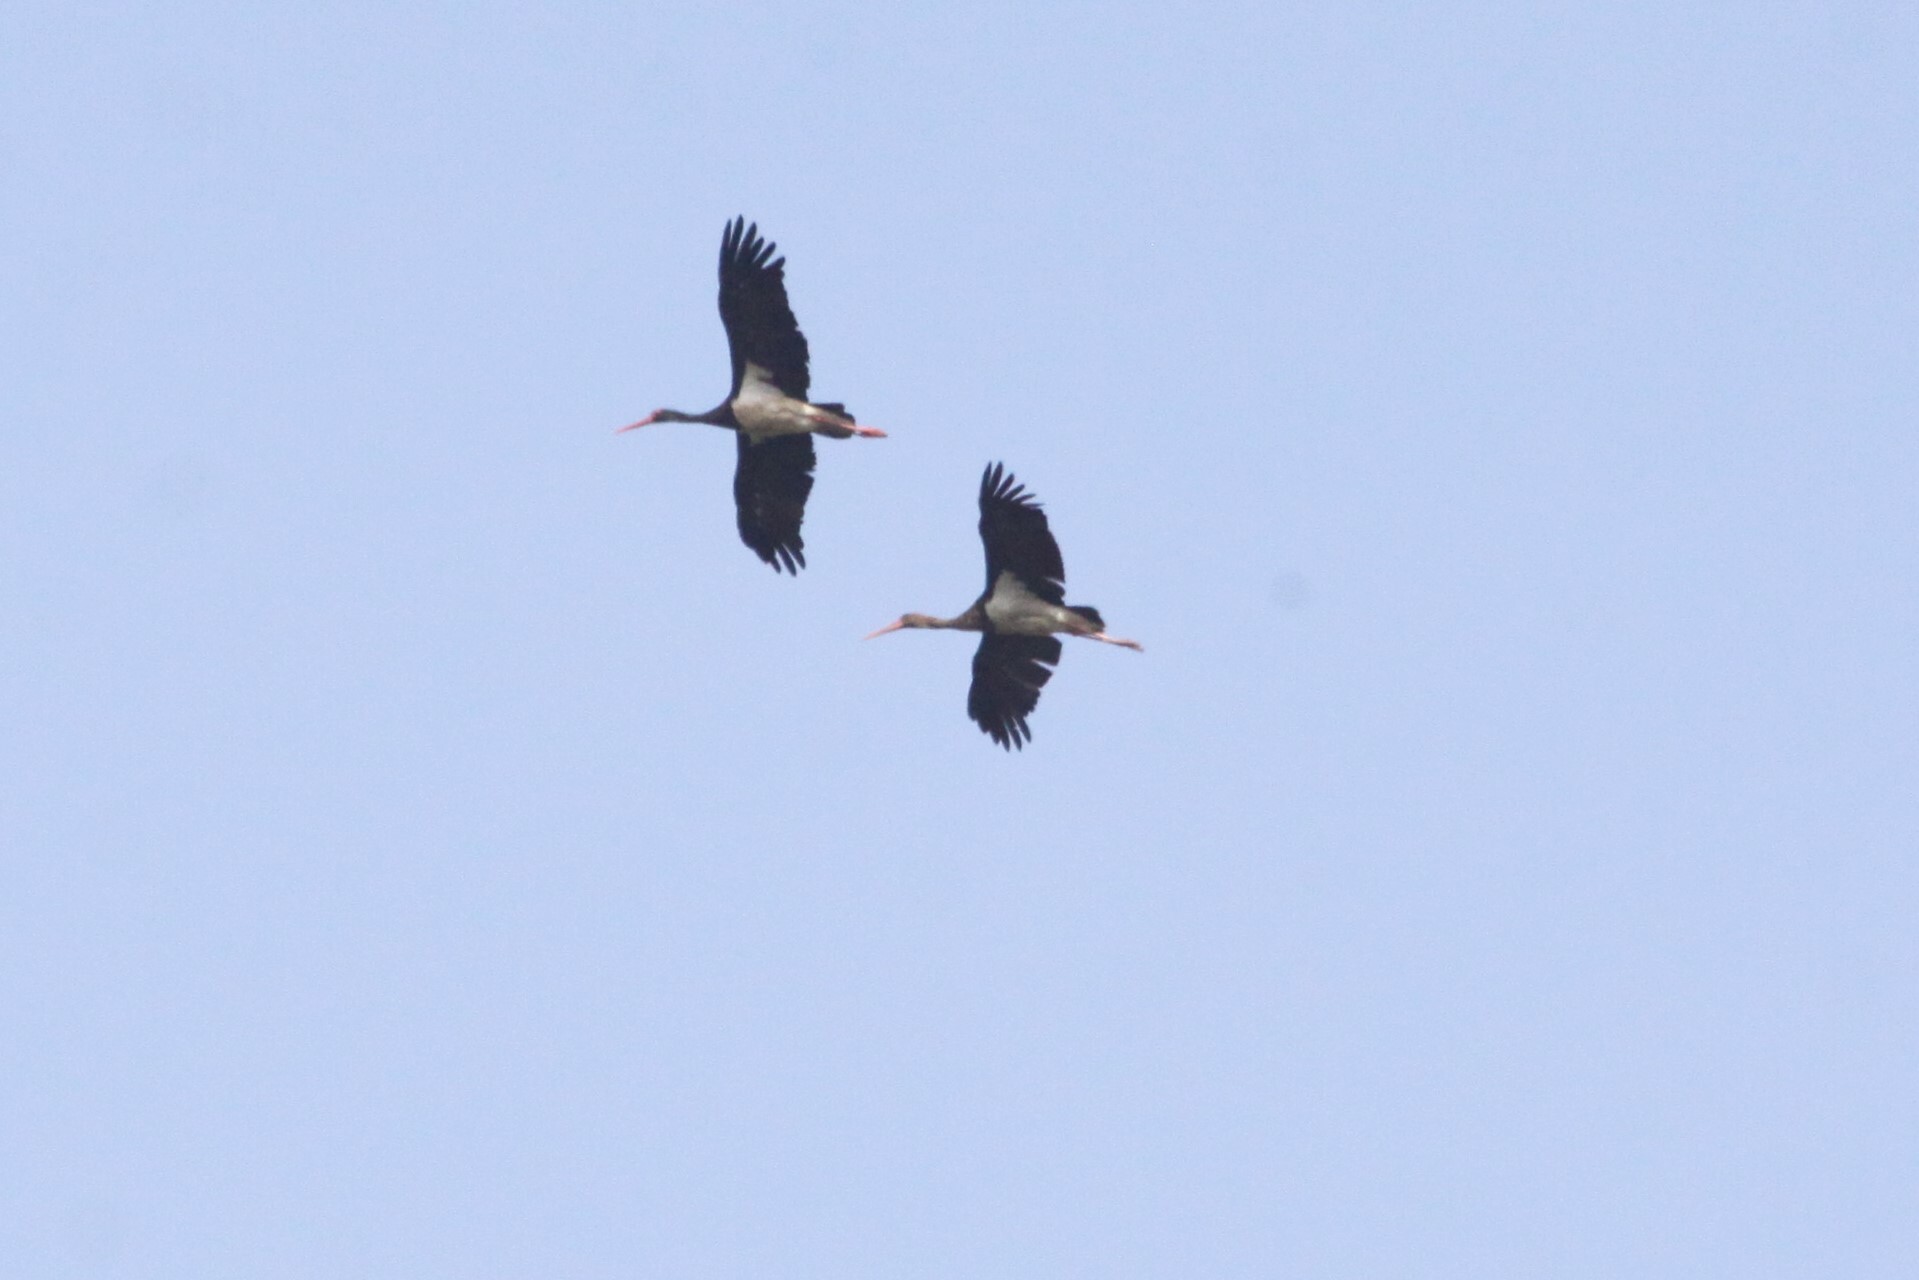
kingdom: Animalia
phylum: Chordata
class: Aves
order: Ciconiiformes
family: Ciconiidae
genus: Ciconia
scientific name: Ciconia nigra
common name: Black stork
